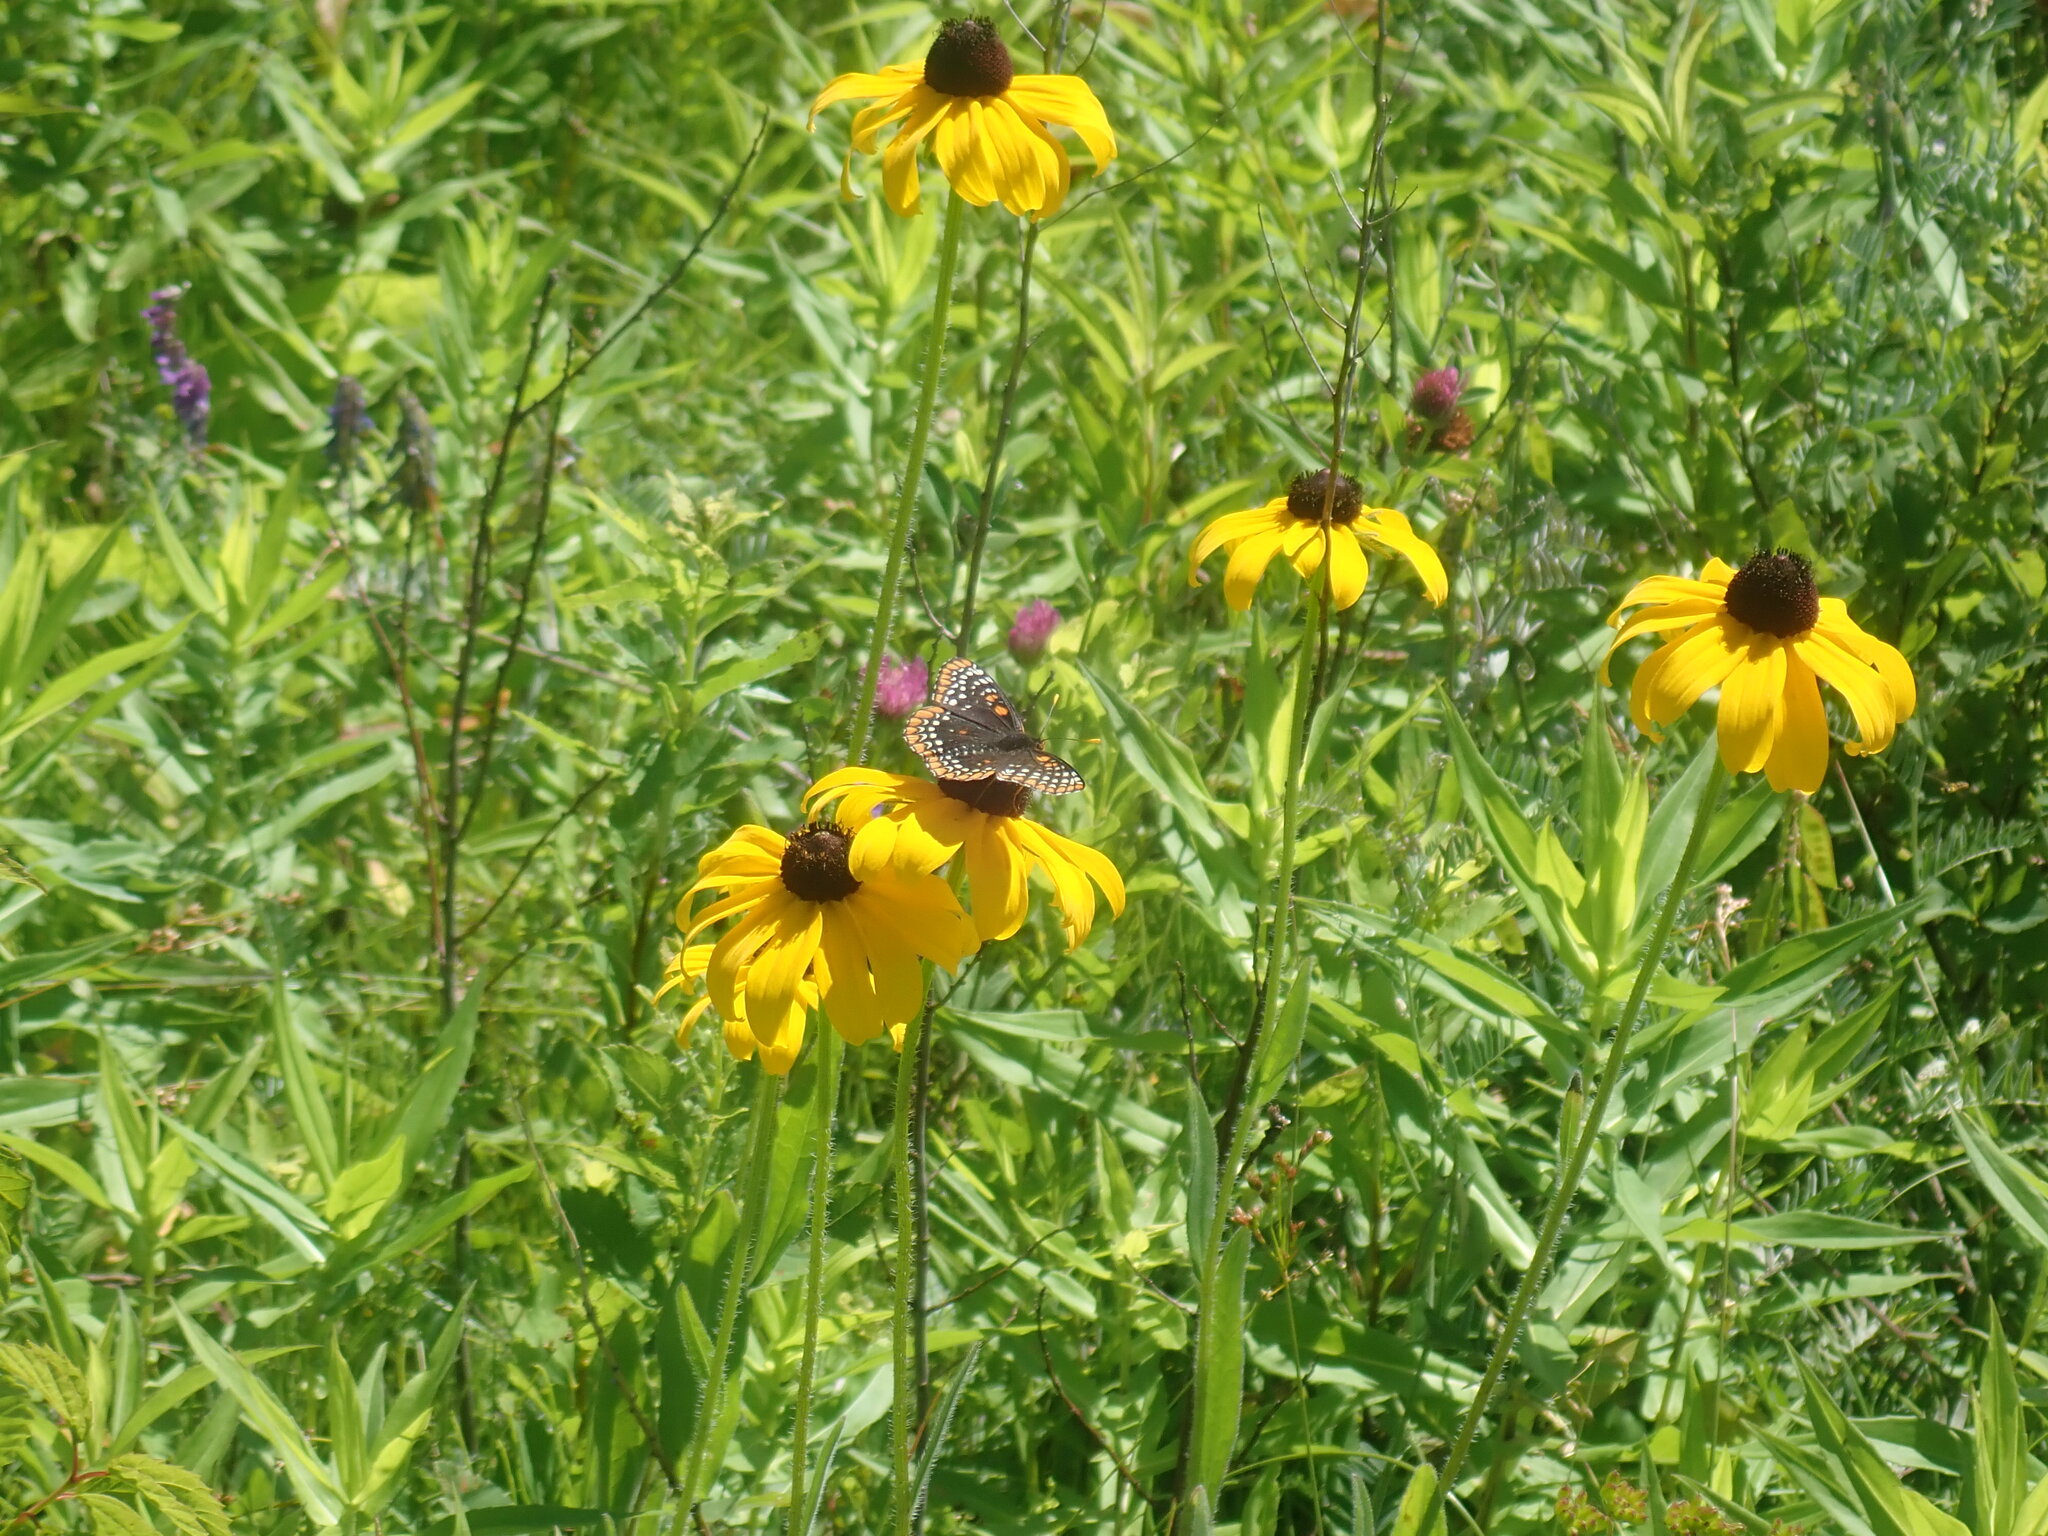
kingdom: Animalia
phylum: Arthropoda
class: Insecta
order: Lepidoptera
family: Nymphalidae
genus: Euphydryas
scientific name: Euphydryas phaeton
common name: Baltimore checkerspot
